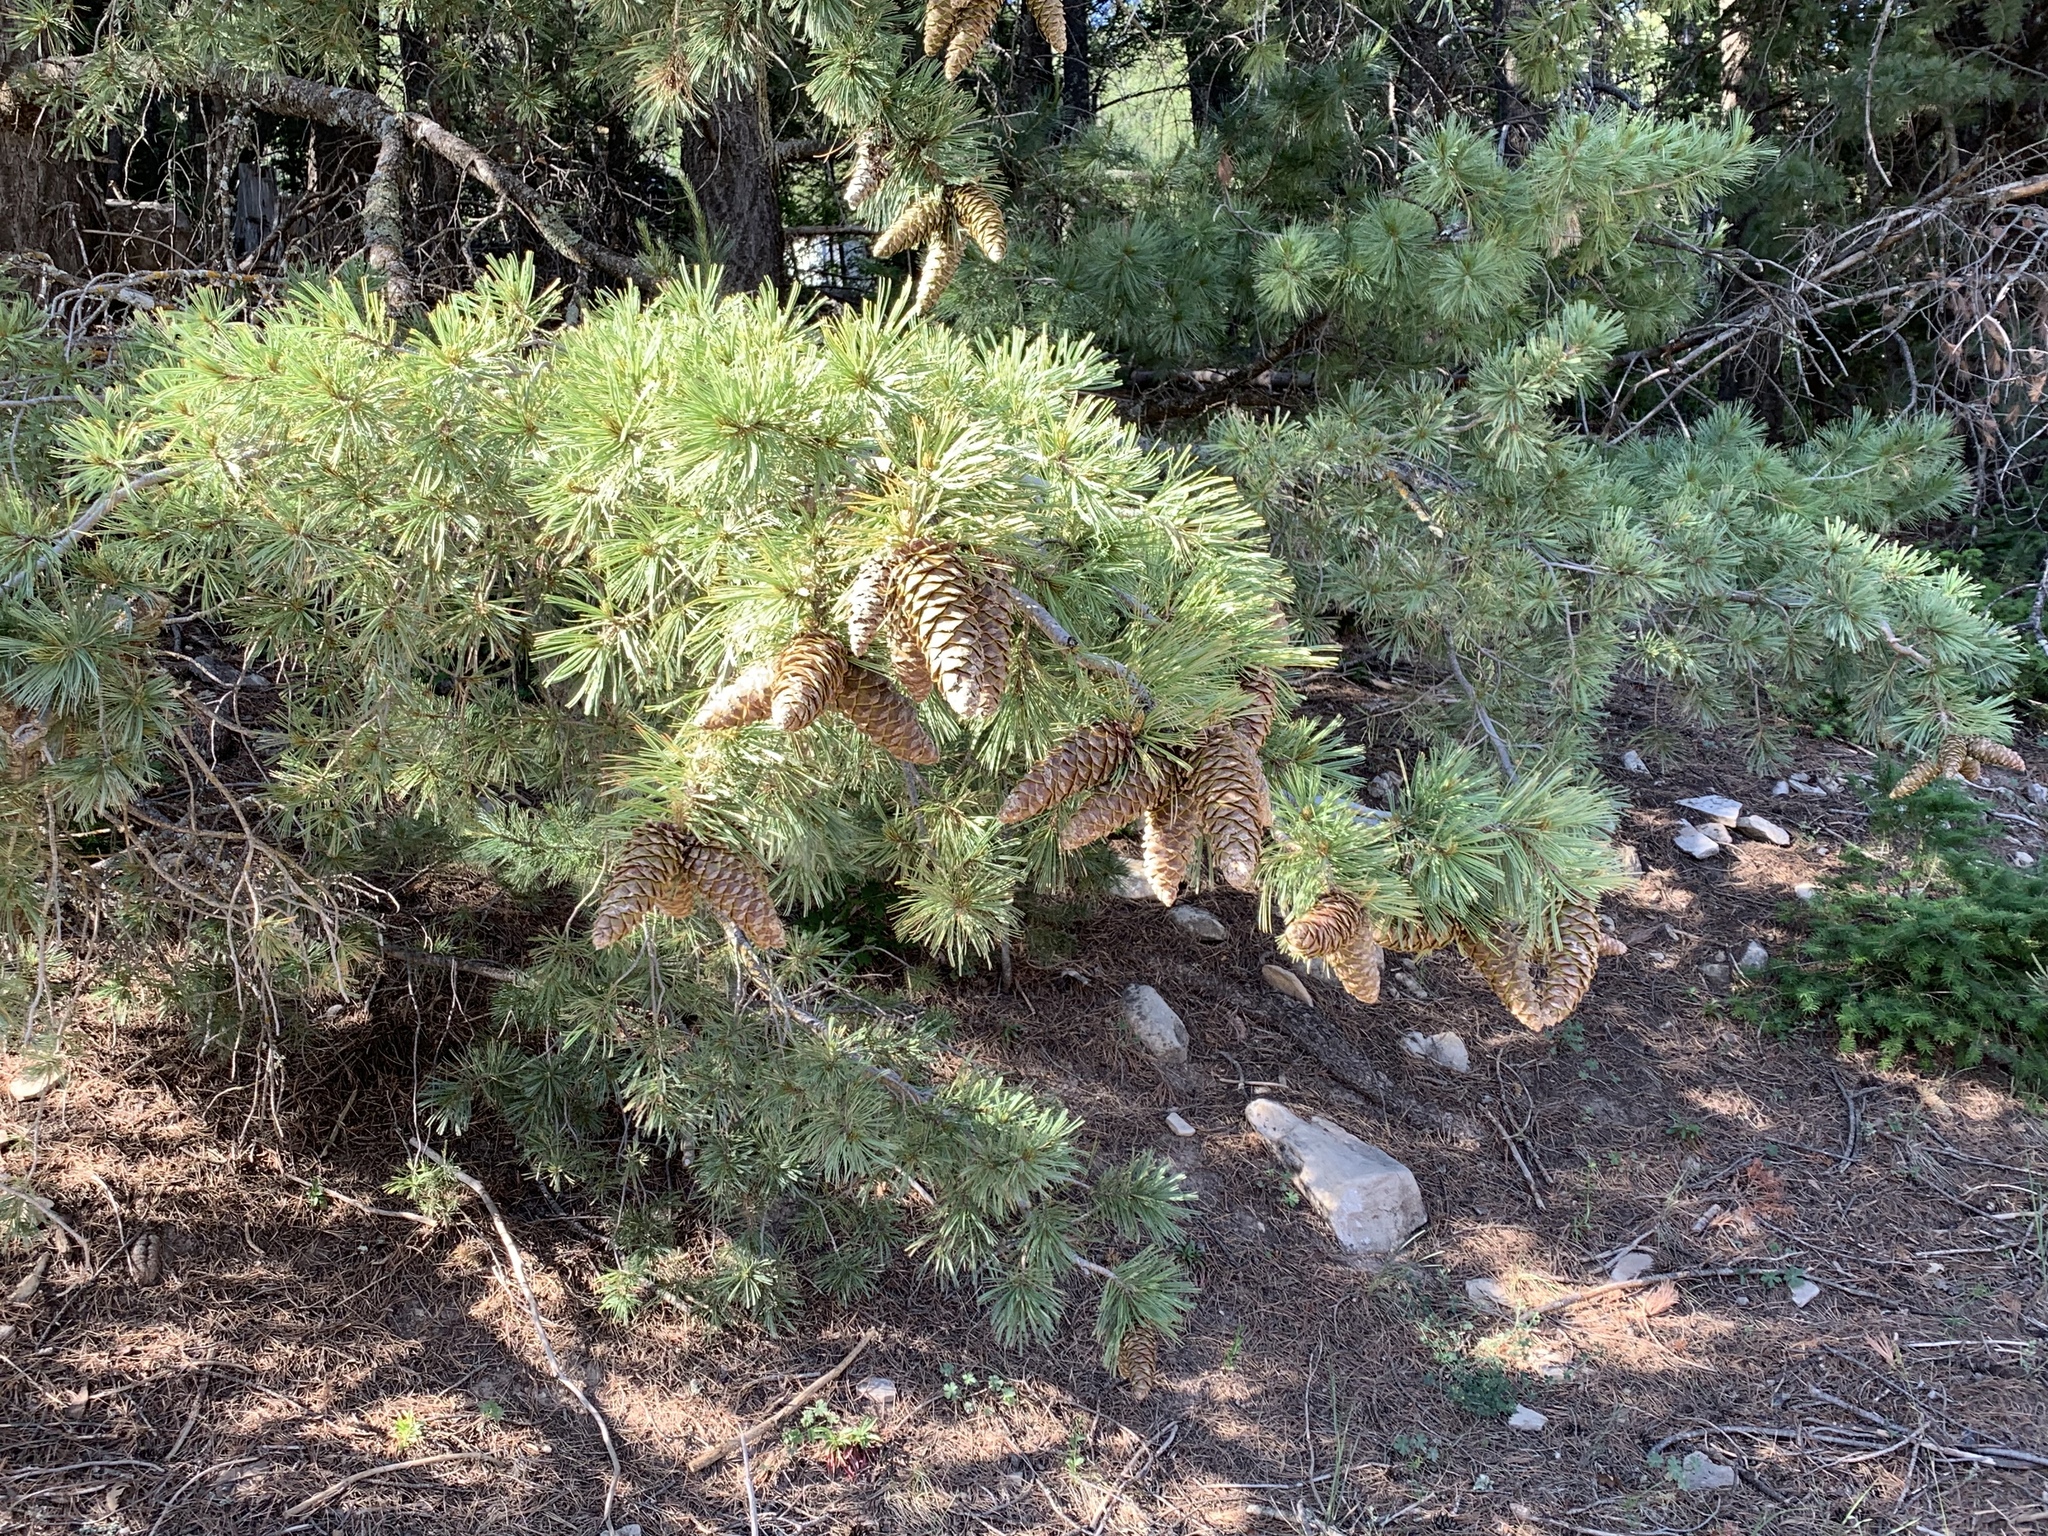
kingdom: Plantae
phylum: Tracheophyta
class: Pinopsida
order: Pinales
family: Pinaceae
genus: Pinus
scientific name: Pinus strobiformis
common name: Southwestern white pine
